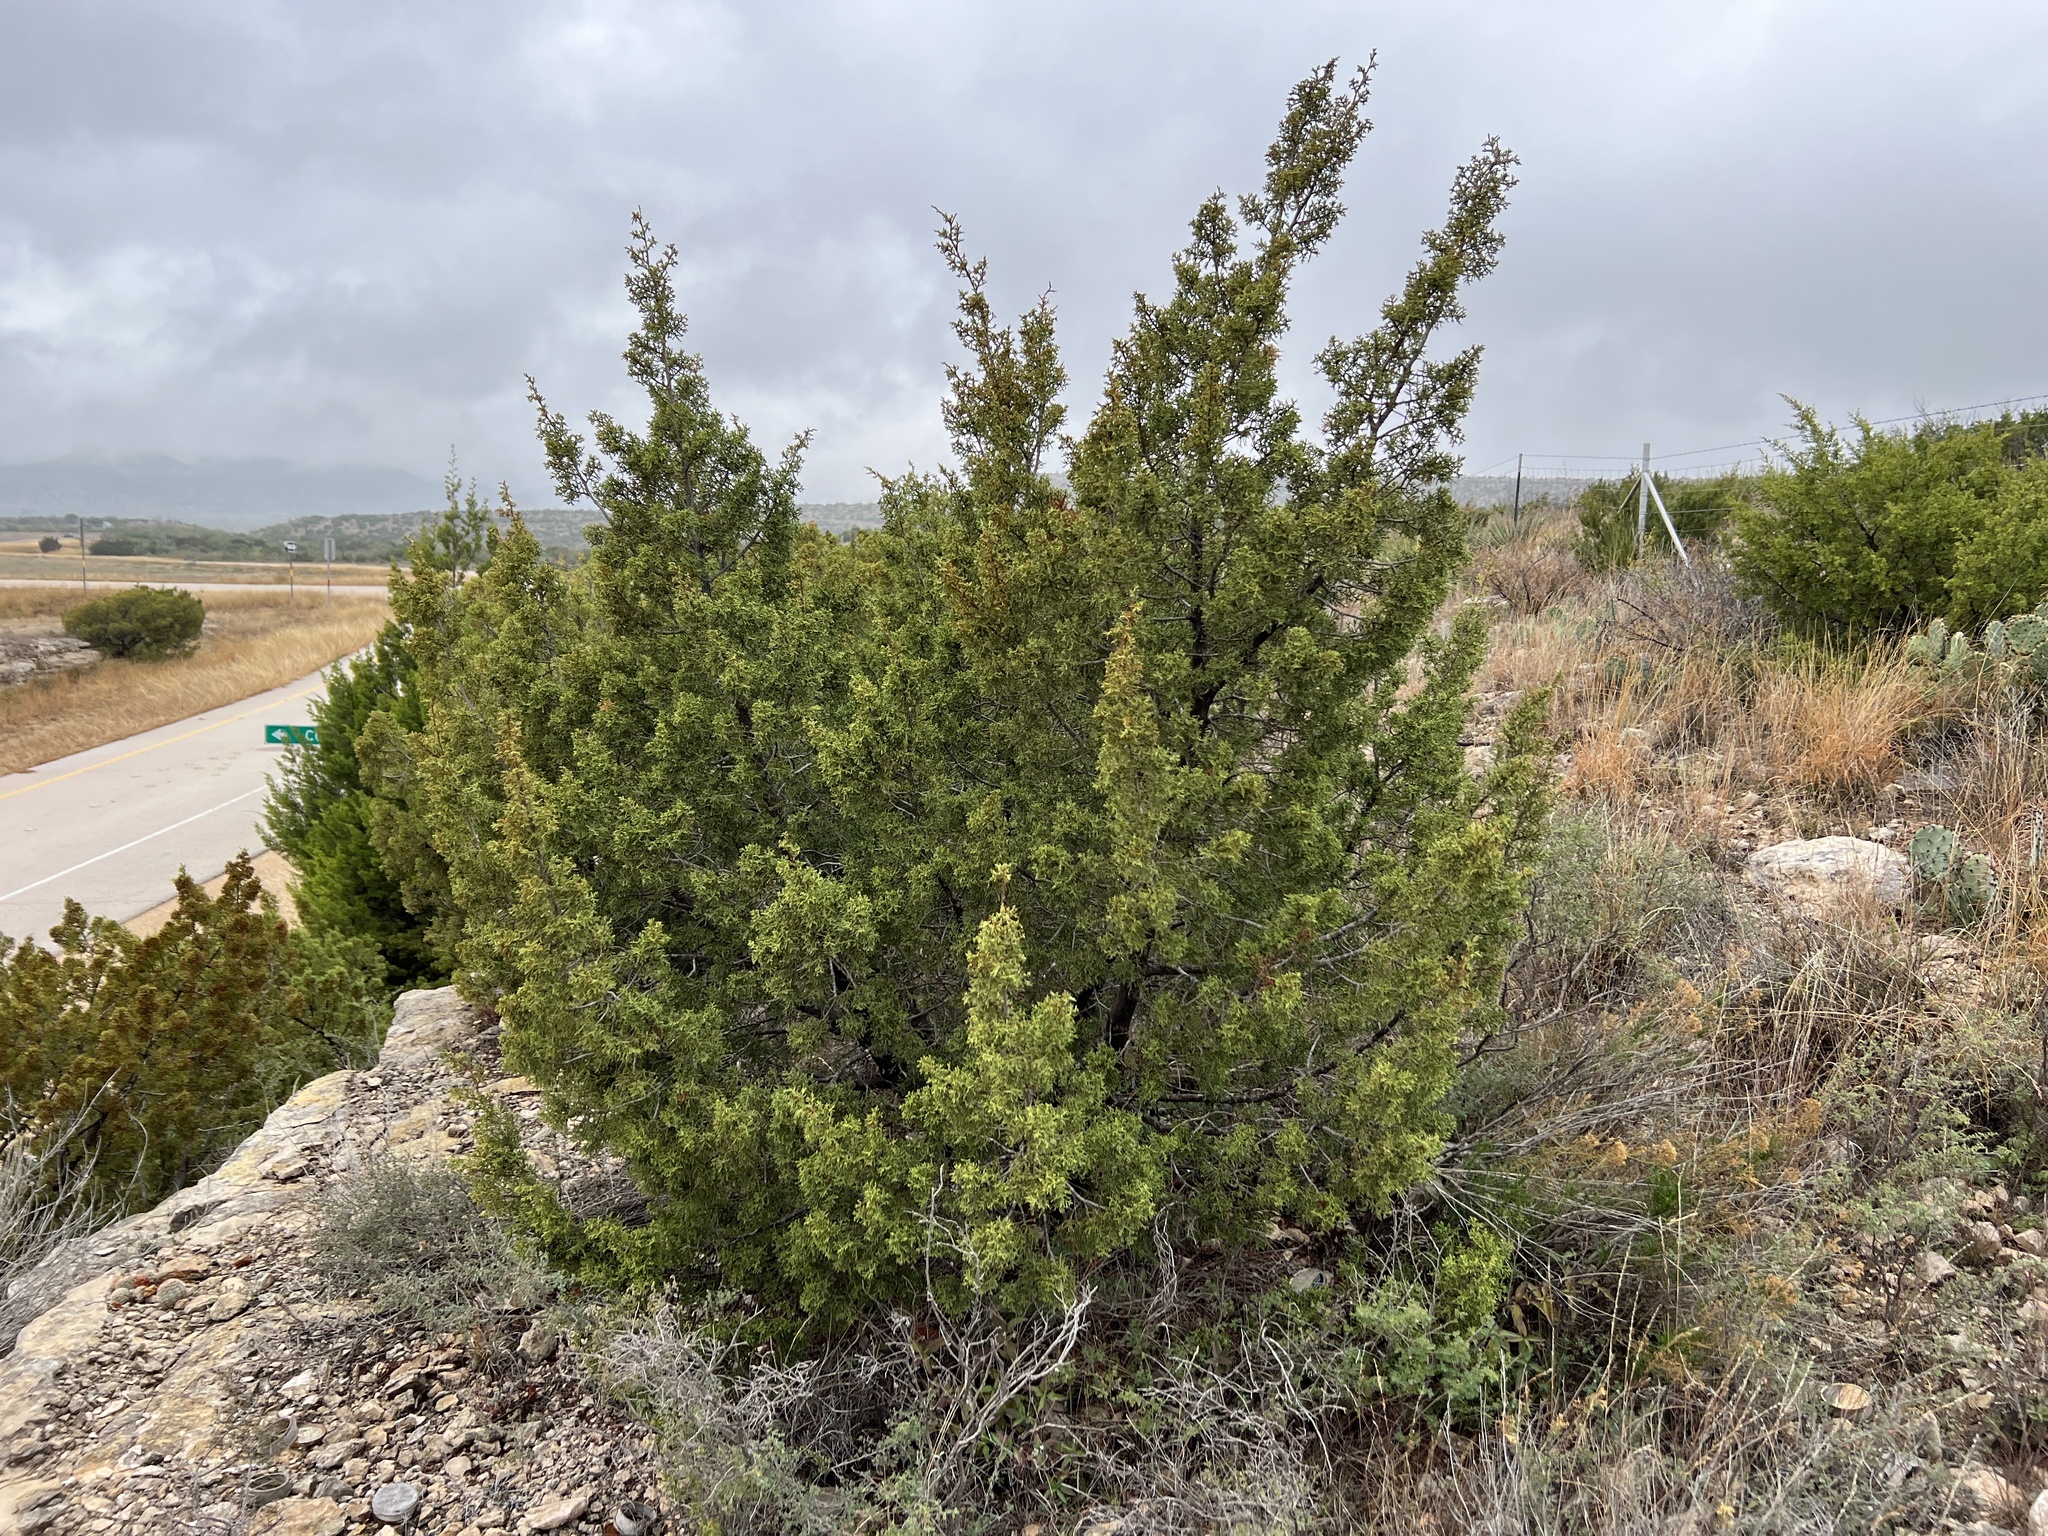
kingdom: Plantae
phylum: Tracheophyta
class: Pinopsida
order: Pinales
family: Cupressaceae
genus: Juniperus
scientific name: Juniperus pinchotii
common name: Pinchot juniper
